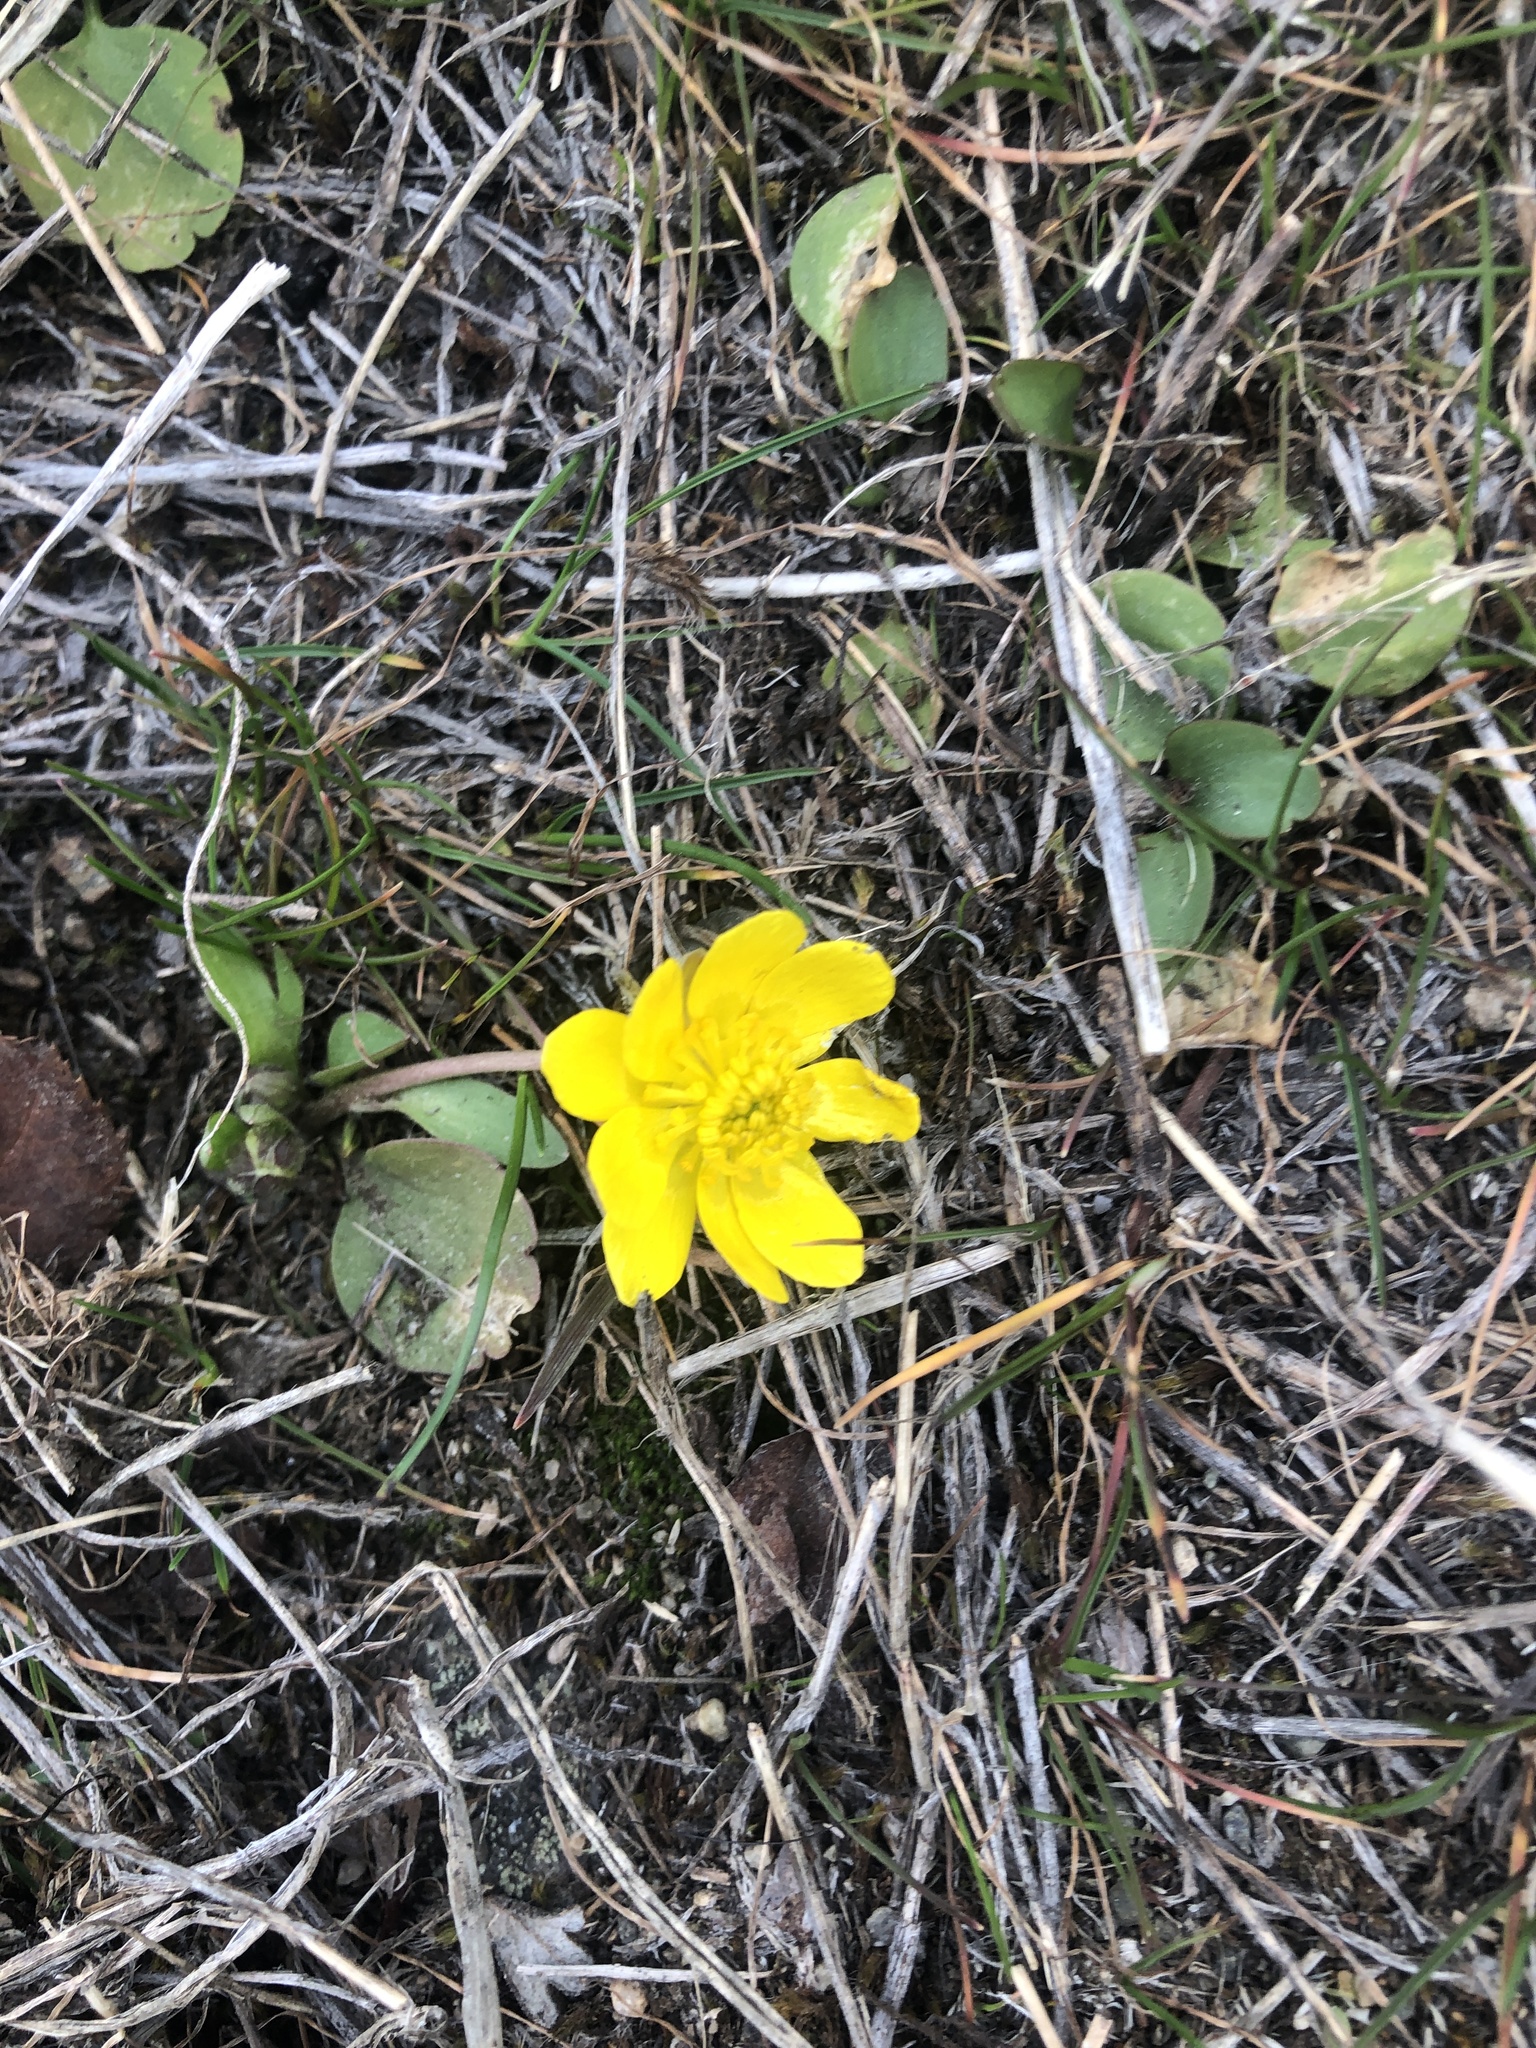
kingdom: Plantae
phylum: Tracheophyta
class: Magnoliopsida
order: Ranunculales
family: Ranunculaceae
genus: Ranunculus
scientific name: Ranunculus glaberrimus
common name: Sagebrush buttercup
